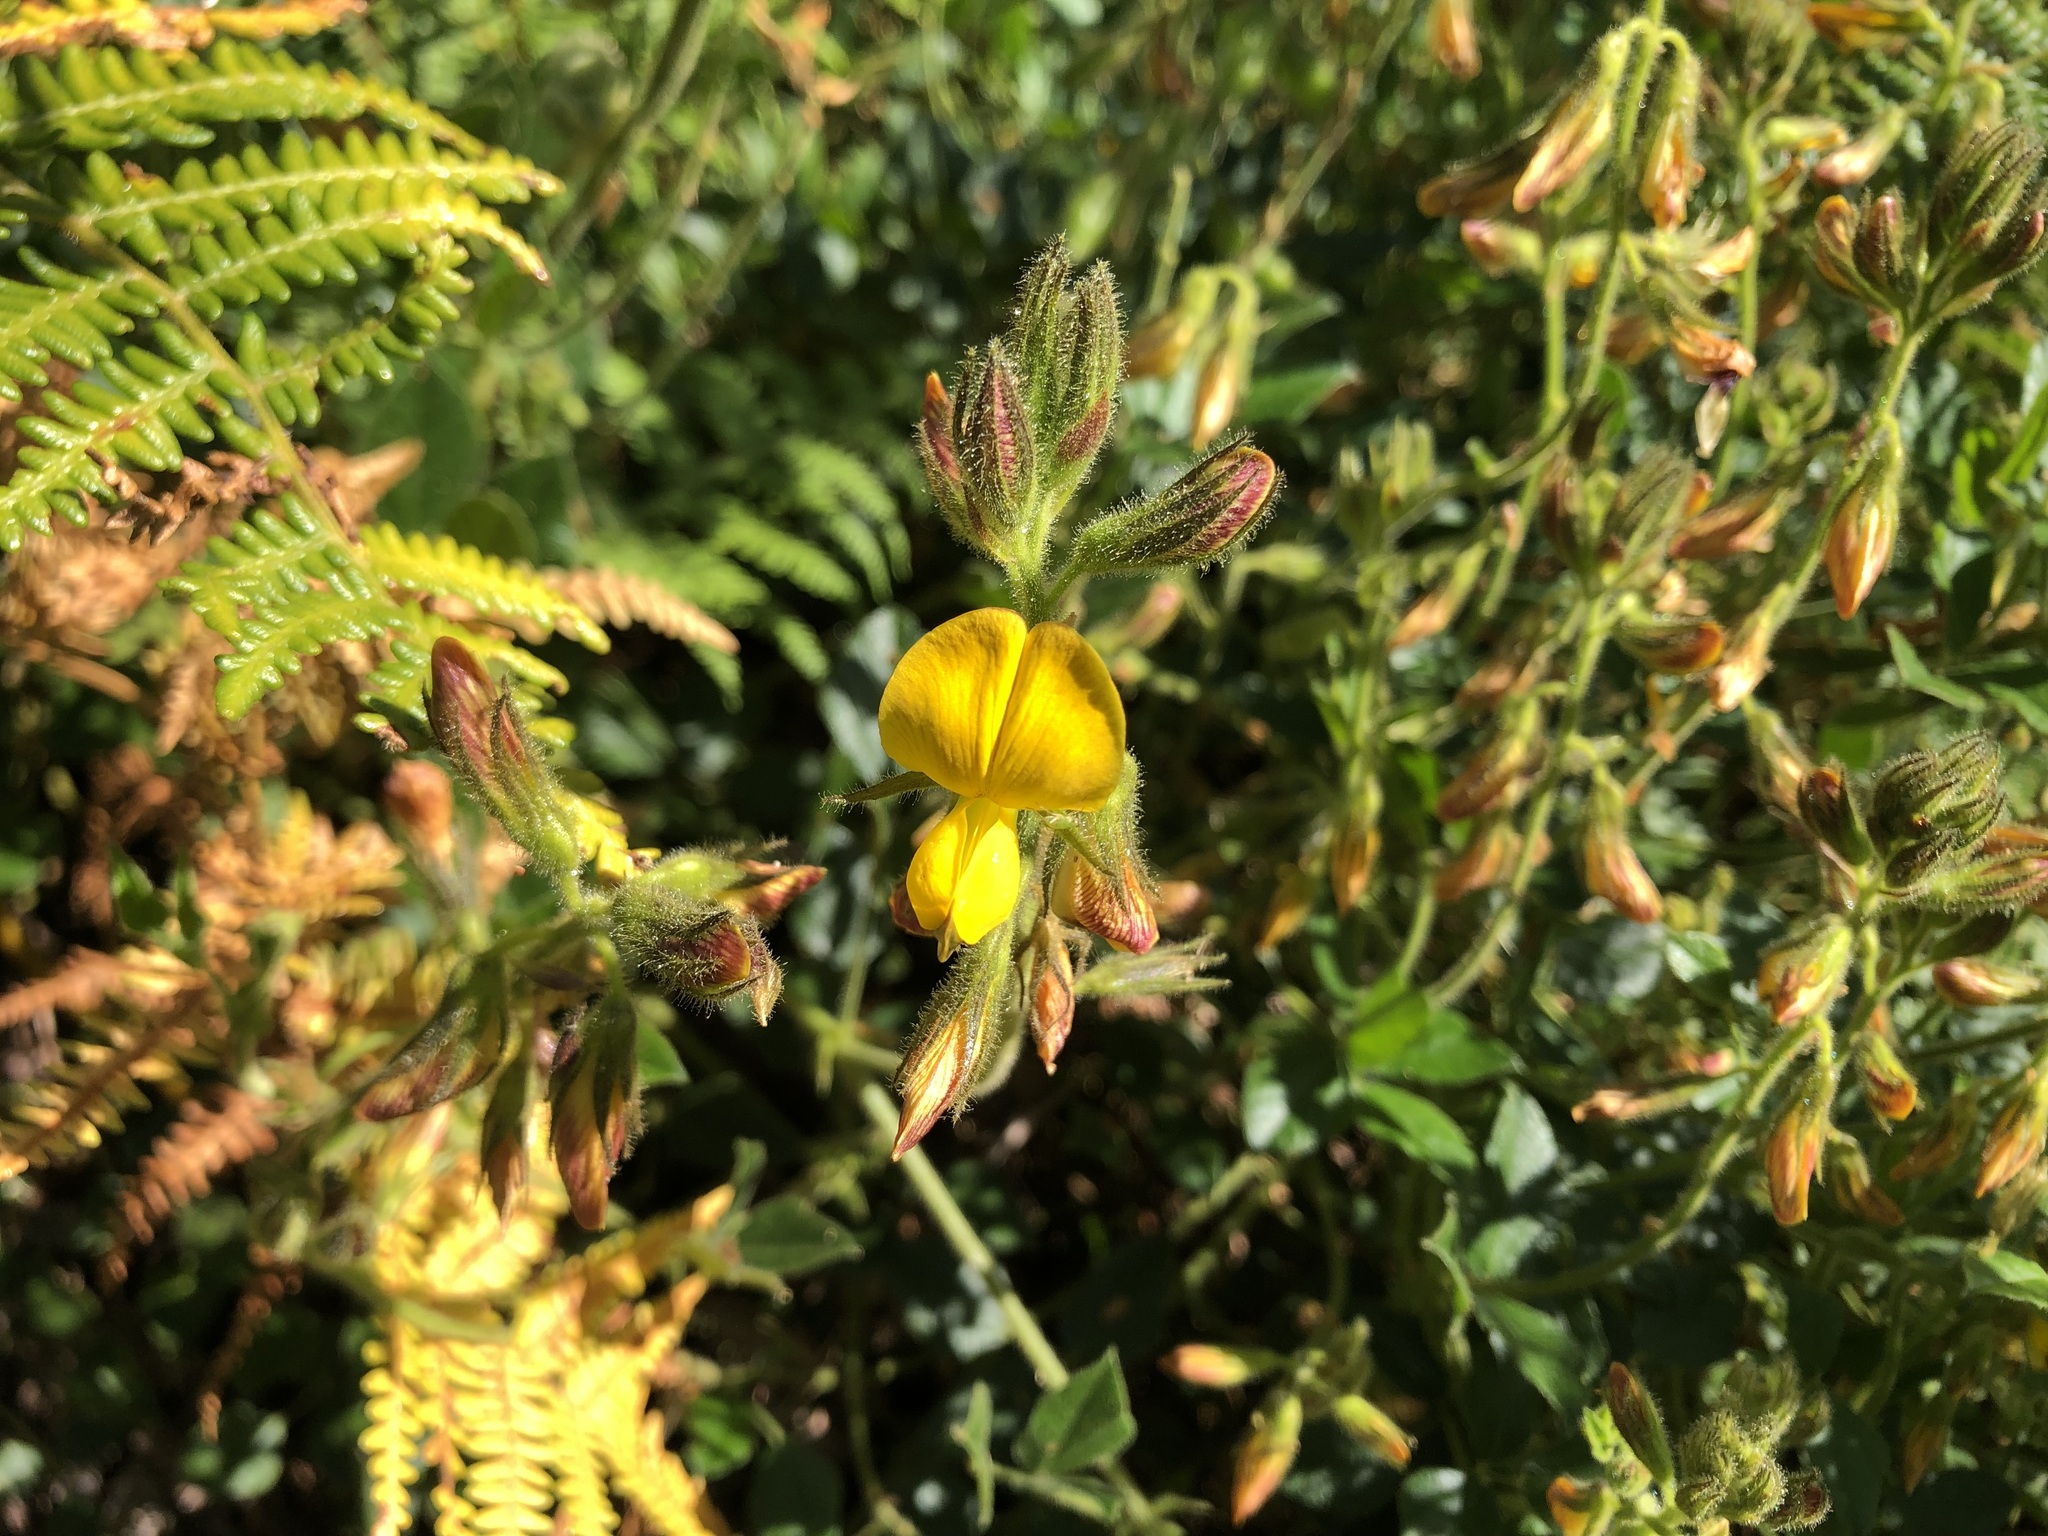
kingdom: Plantae
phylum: Tracheophyta
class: Magnoliopsida
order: Fabales
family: Fabaceae
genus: Bolusafra
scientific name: Bolusafra bituminosa
